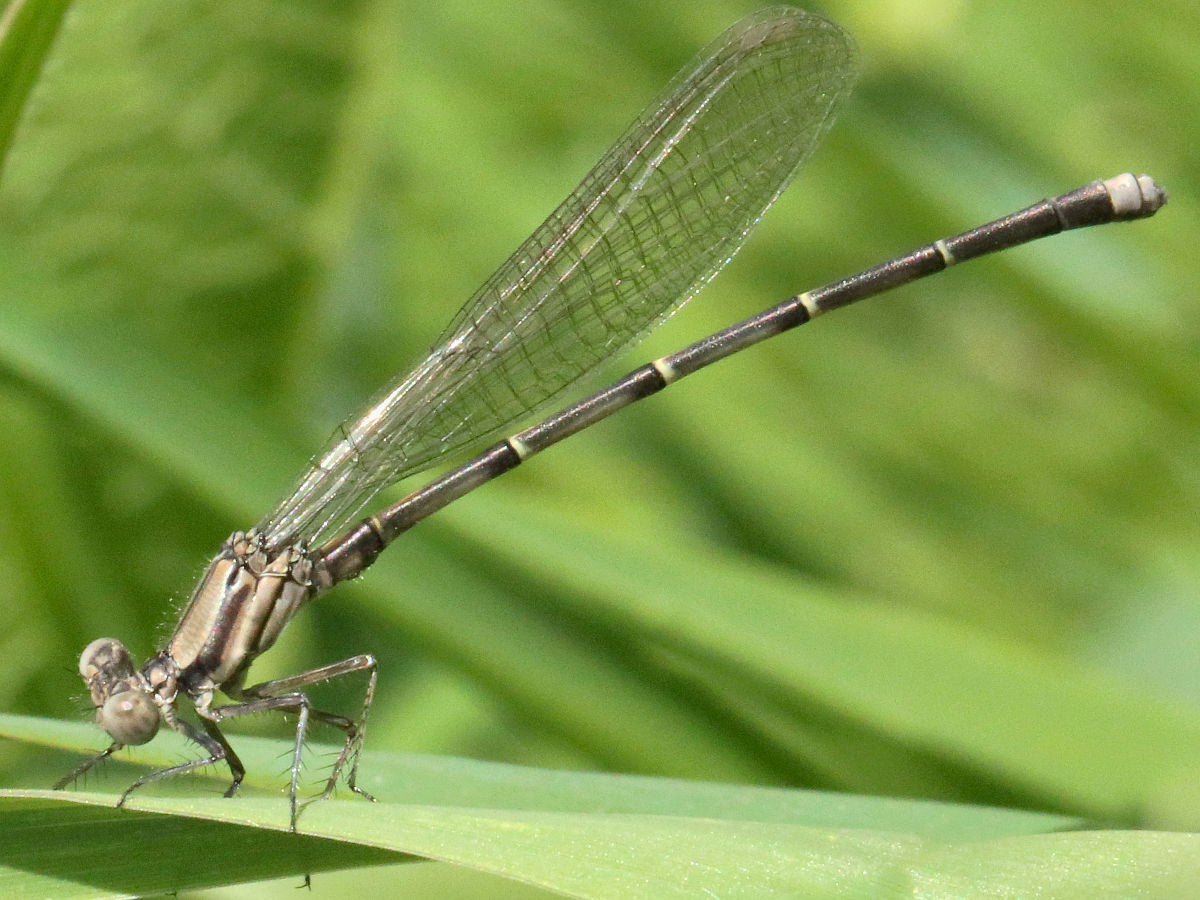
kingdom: Animalia
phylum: Arthropoda
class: Insecta
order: Odonata
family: Coenagrionidae
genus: Argia
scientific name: Argia tibialis
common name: Blue-tipped dancer
